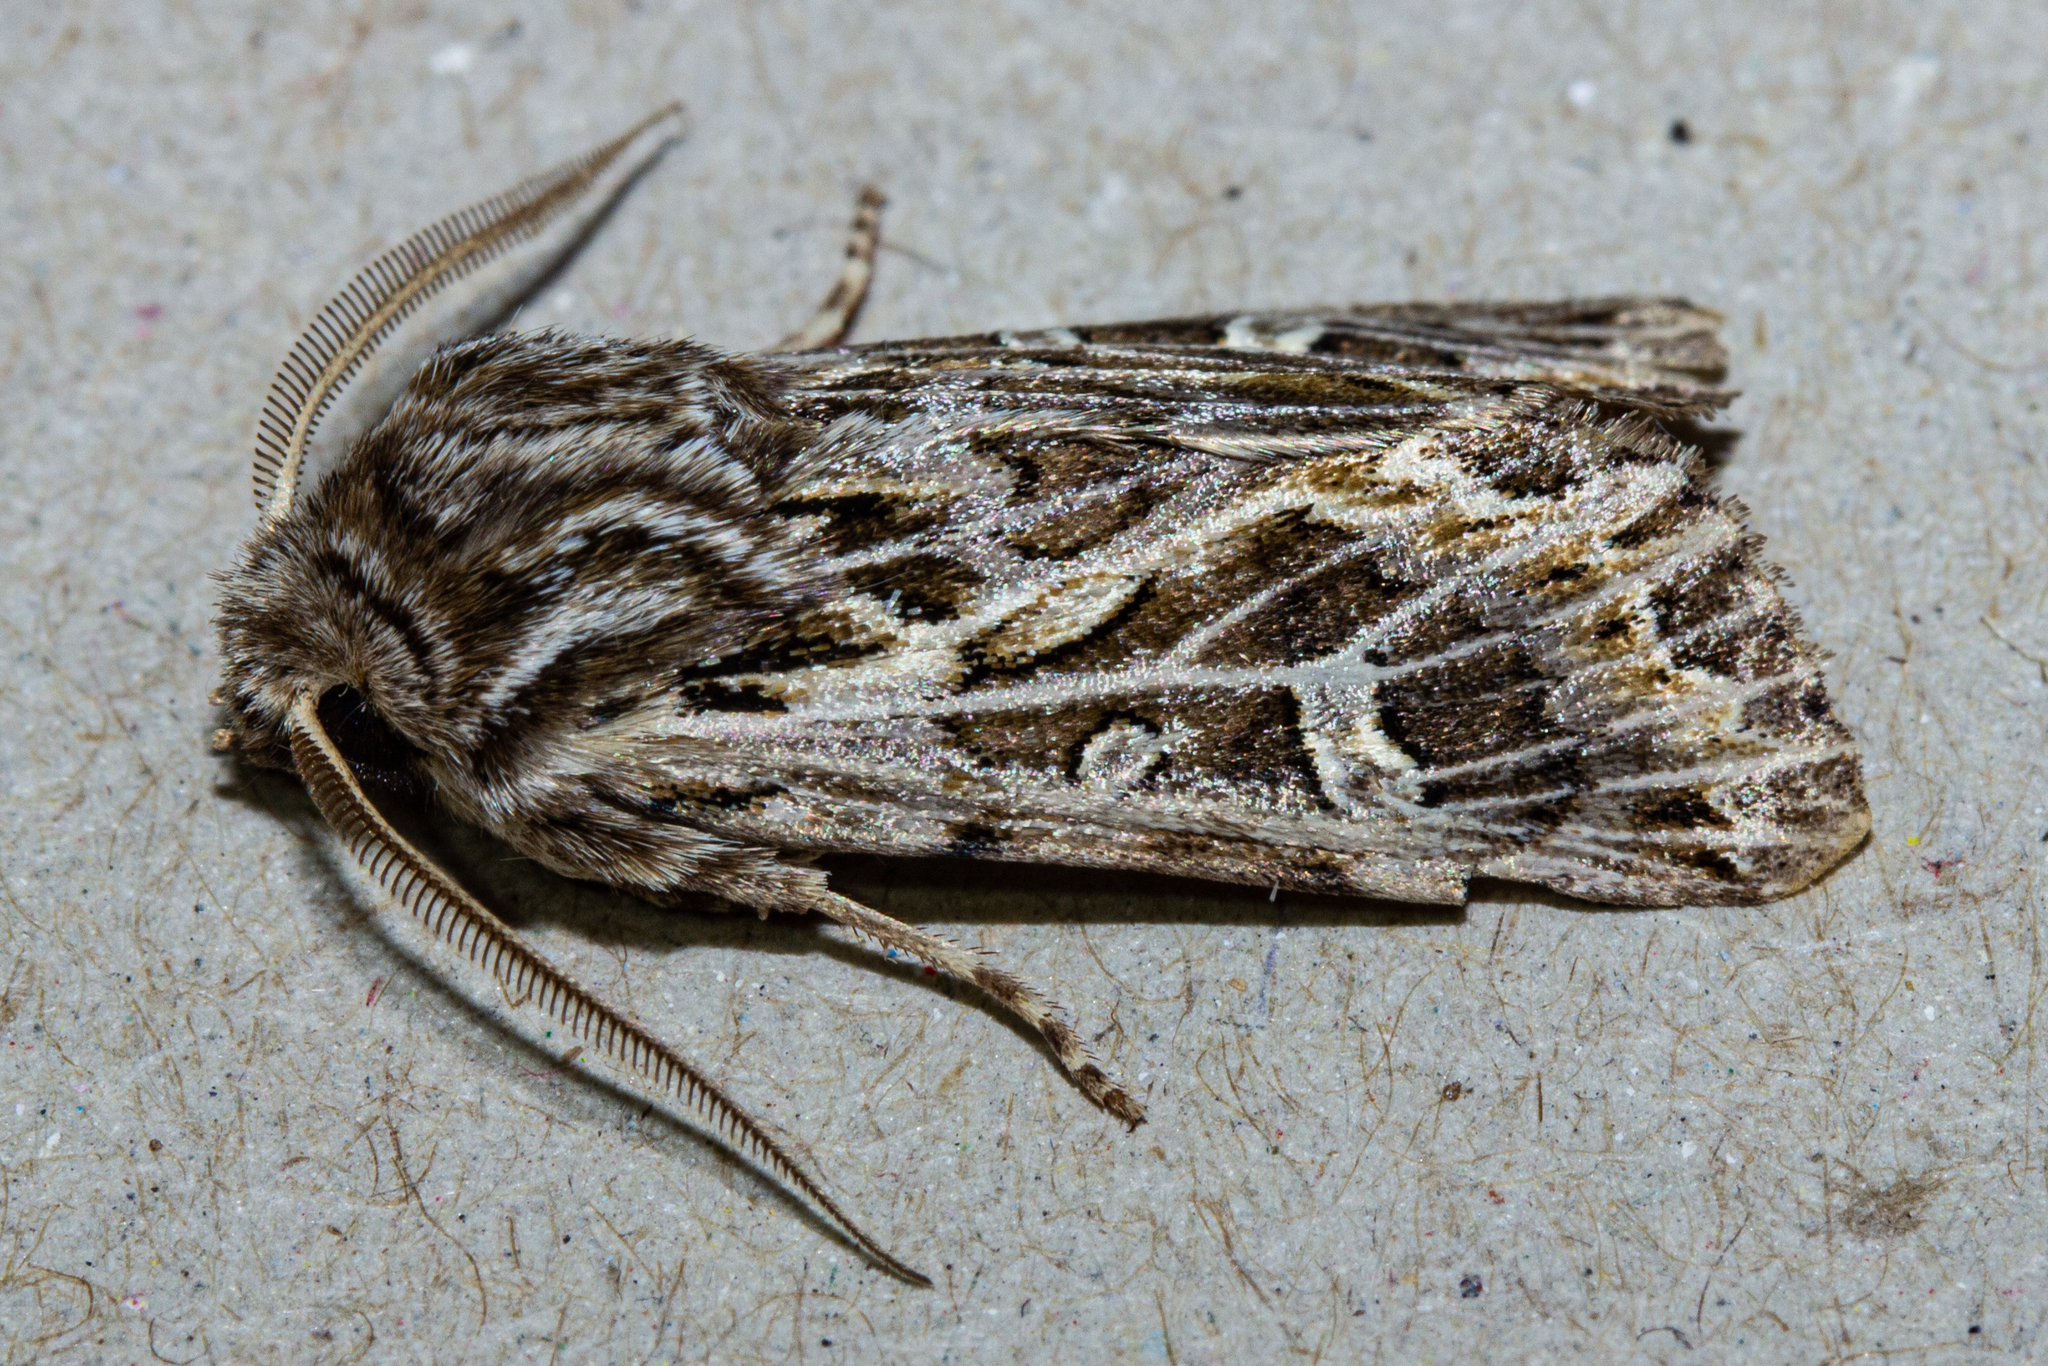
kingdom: Animalia
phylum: Arthropoda
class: Insecta
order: Lepidoptera
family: Noctuidae
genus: Ichneutica
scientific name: Ichneutica
